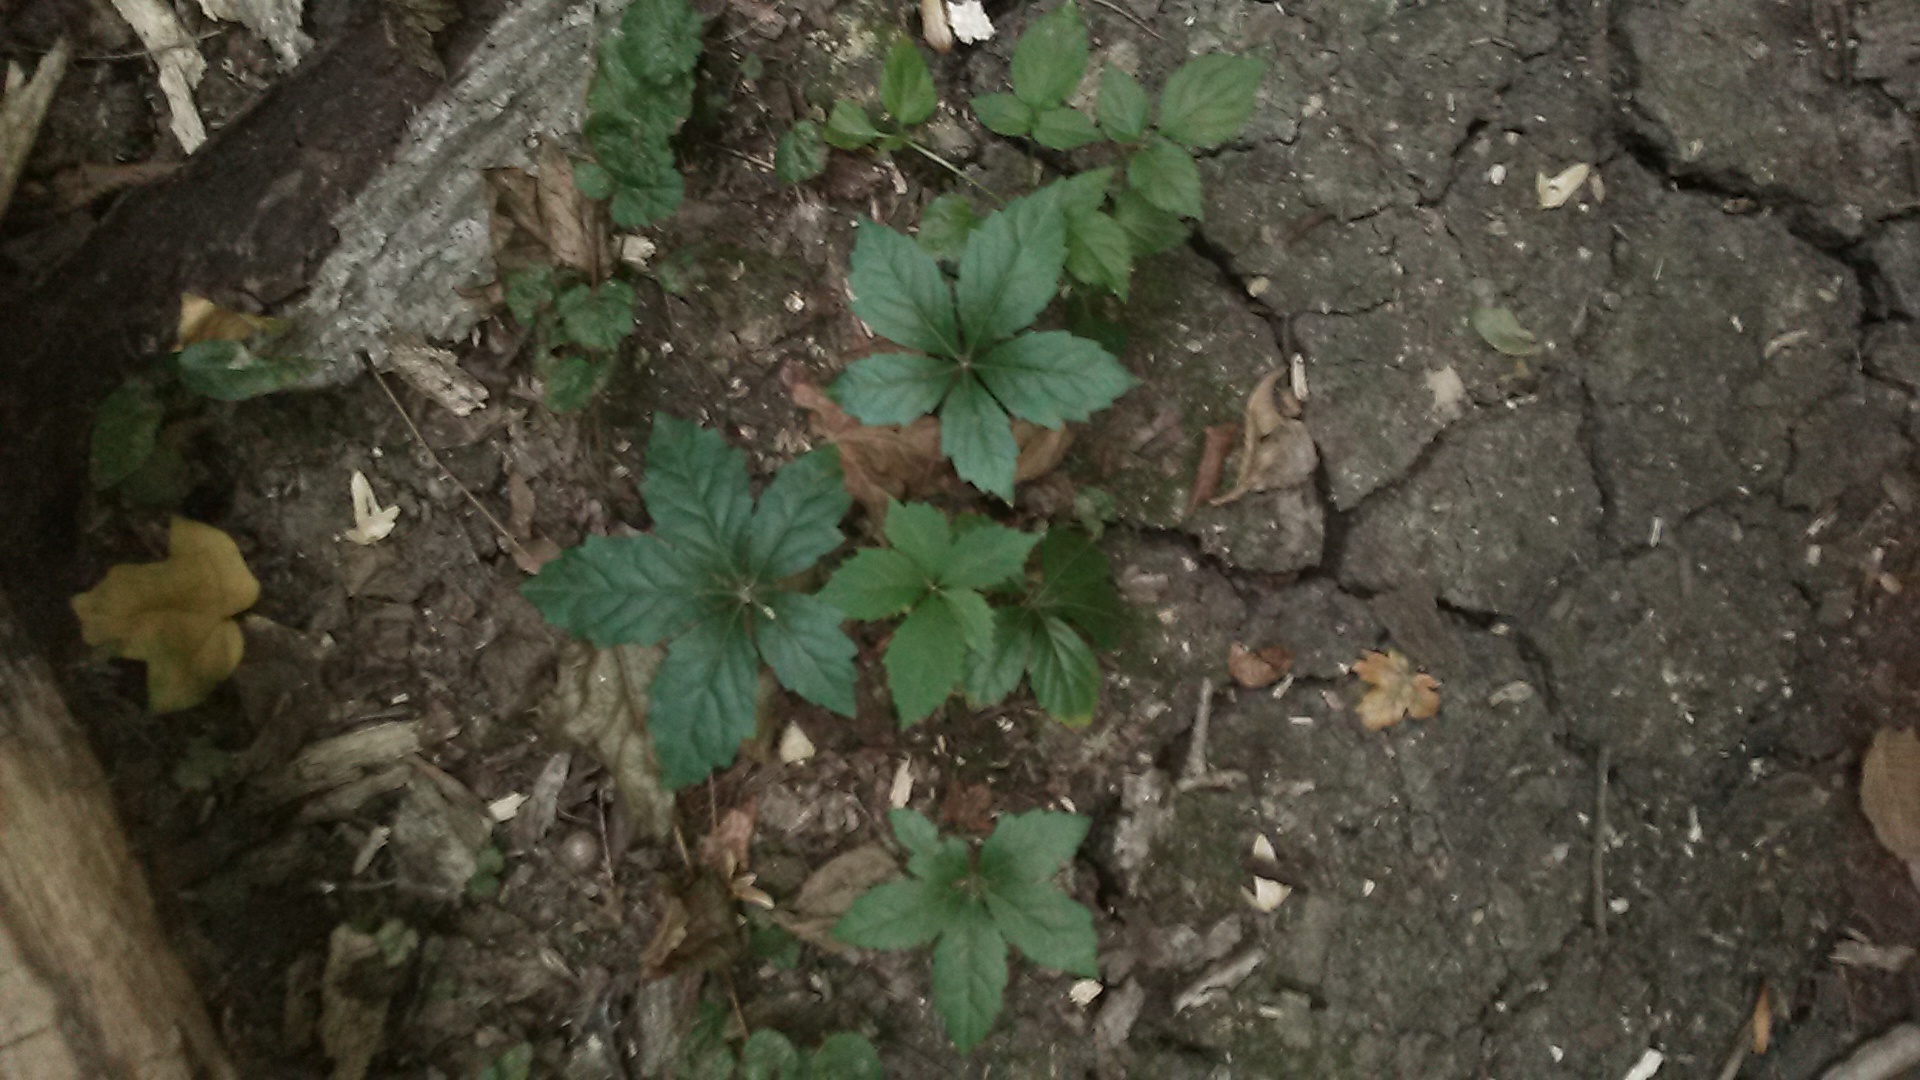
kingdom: Plantae
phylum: Tracheophyta
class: Magnoliopsida
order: Vitales
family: Vitaceae
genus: Parthenocissus
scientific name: Parthenocissus inserta
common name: False virginia-creeper
